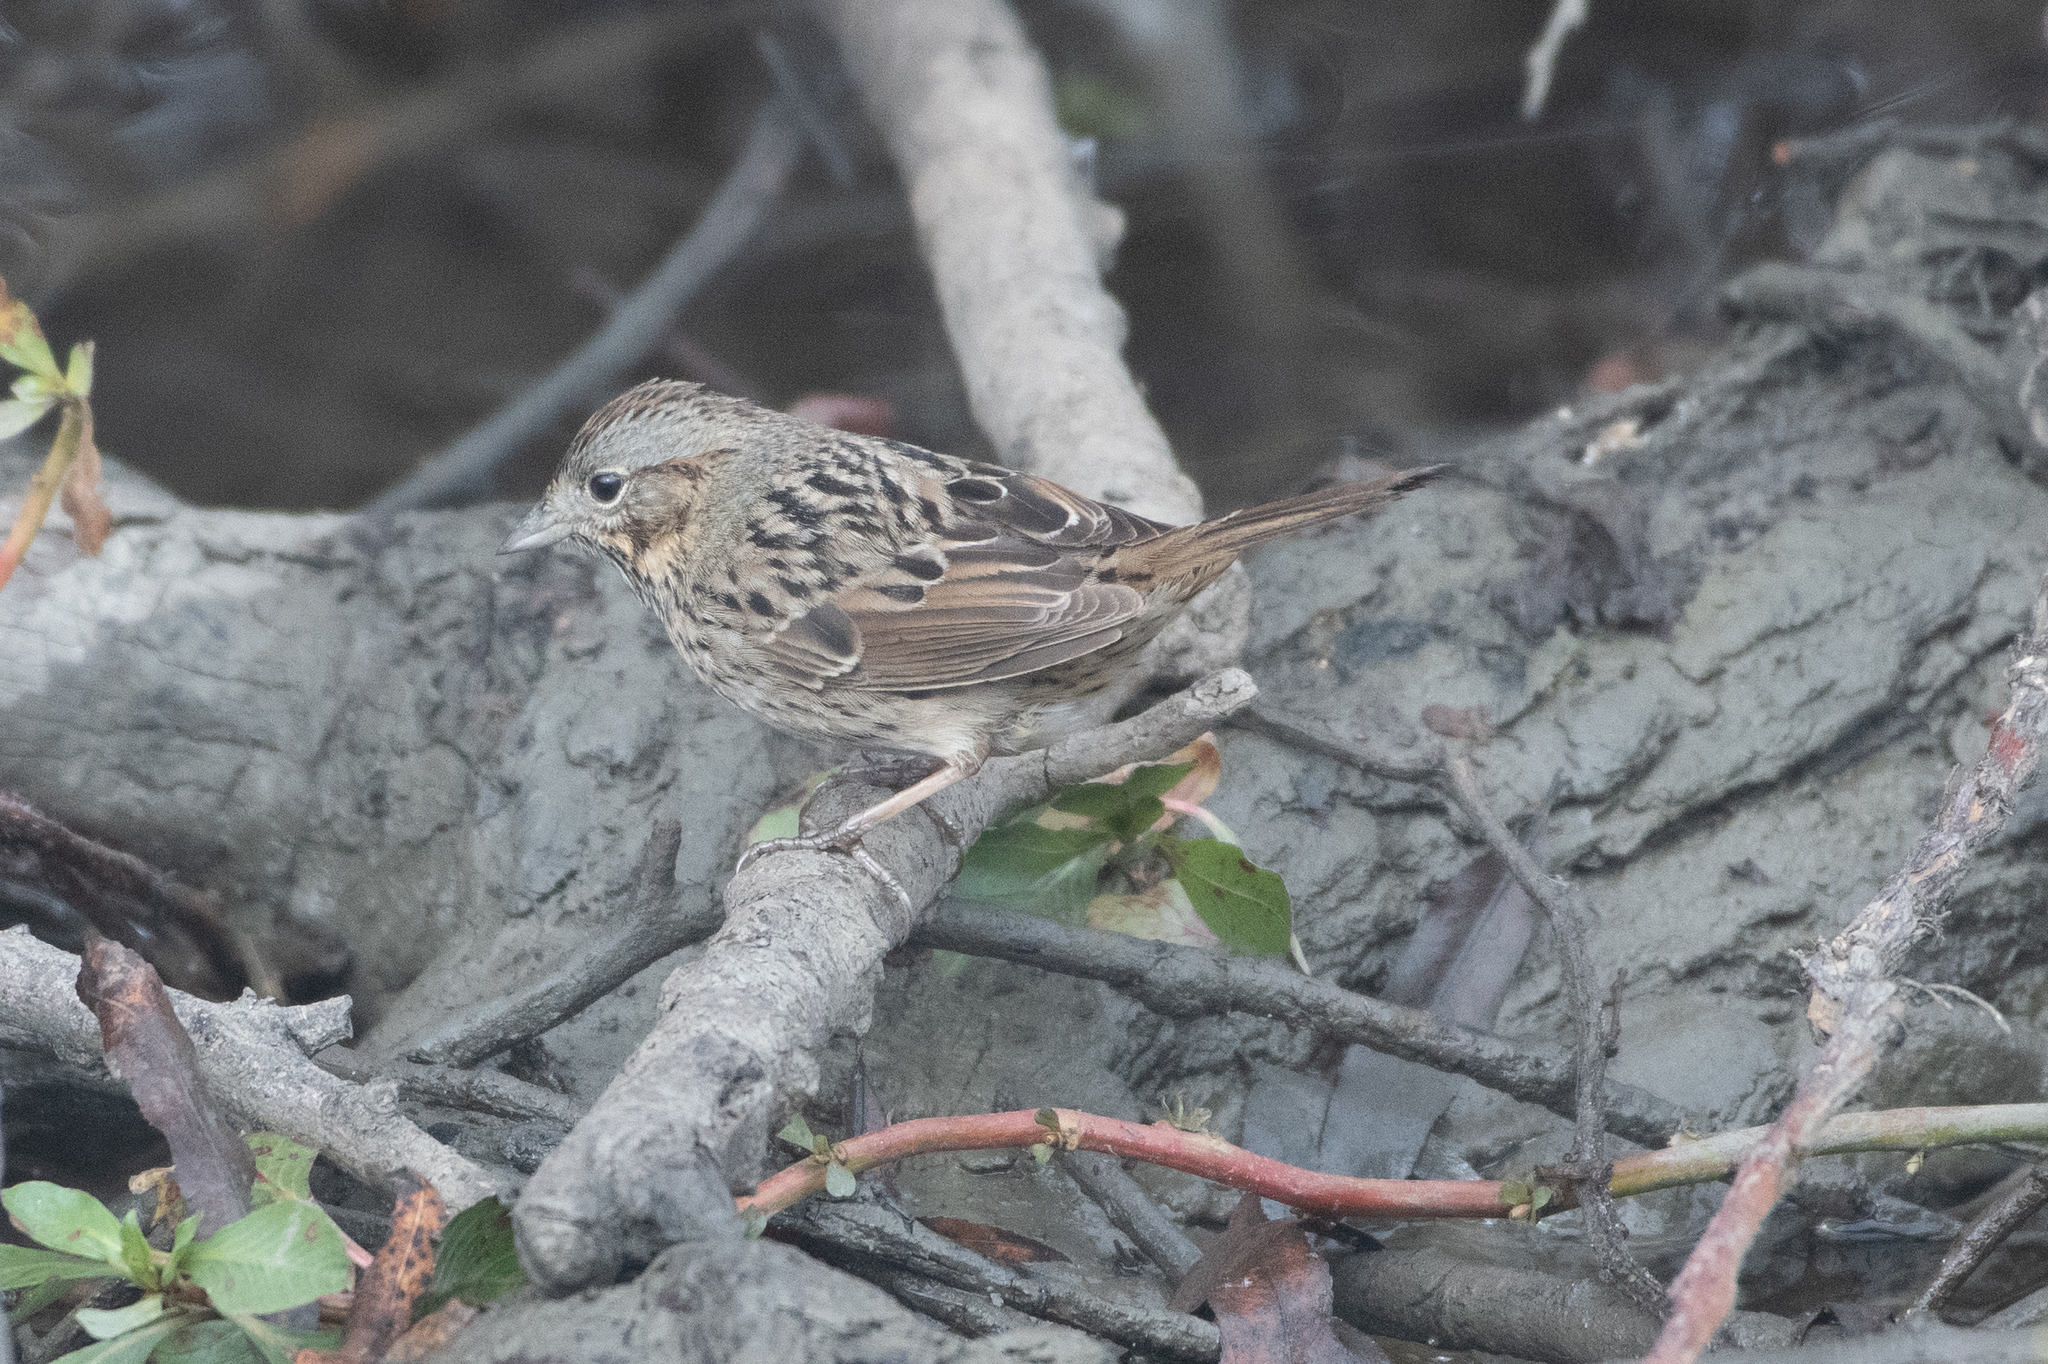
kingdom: Animalia
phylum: Chordata
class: Aves
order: Passeriformes
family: Passerellidae
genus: Melospiza
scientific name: Melospiza lincolnii
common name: Lincoln's sparrow
